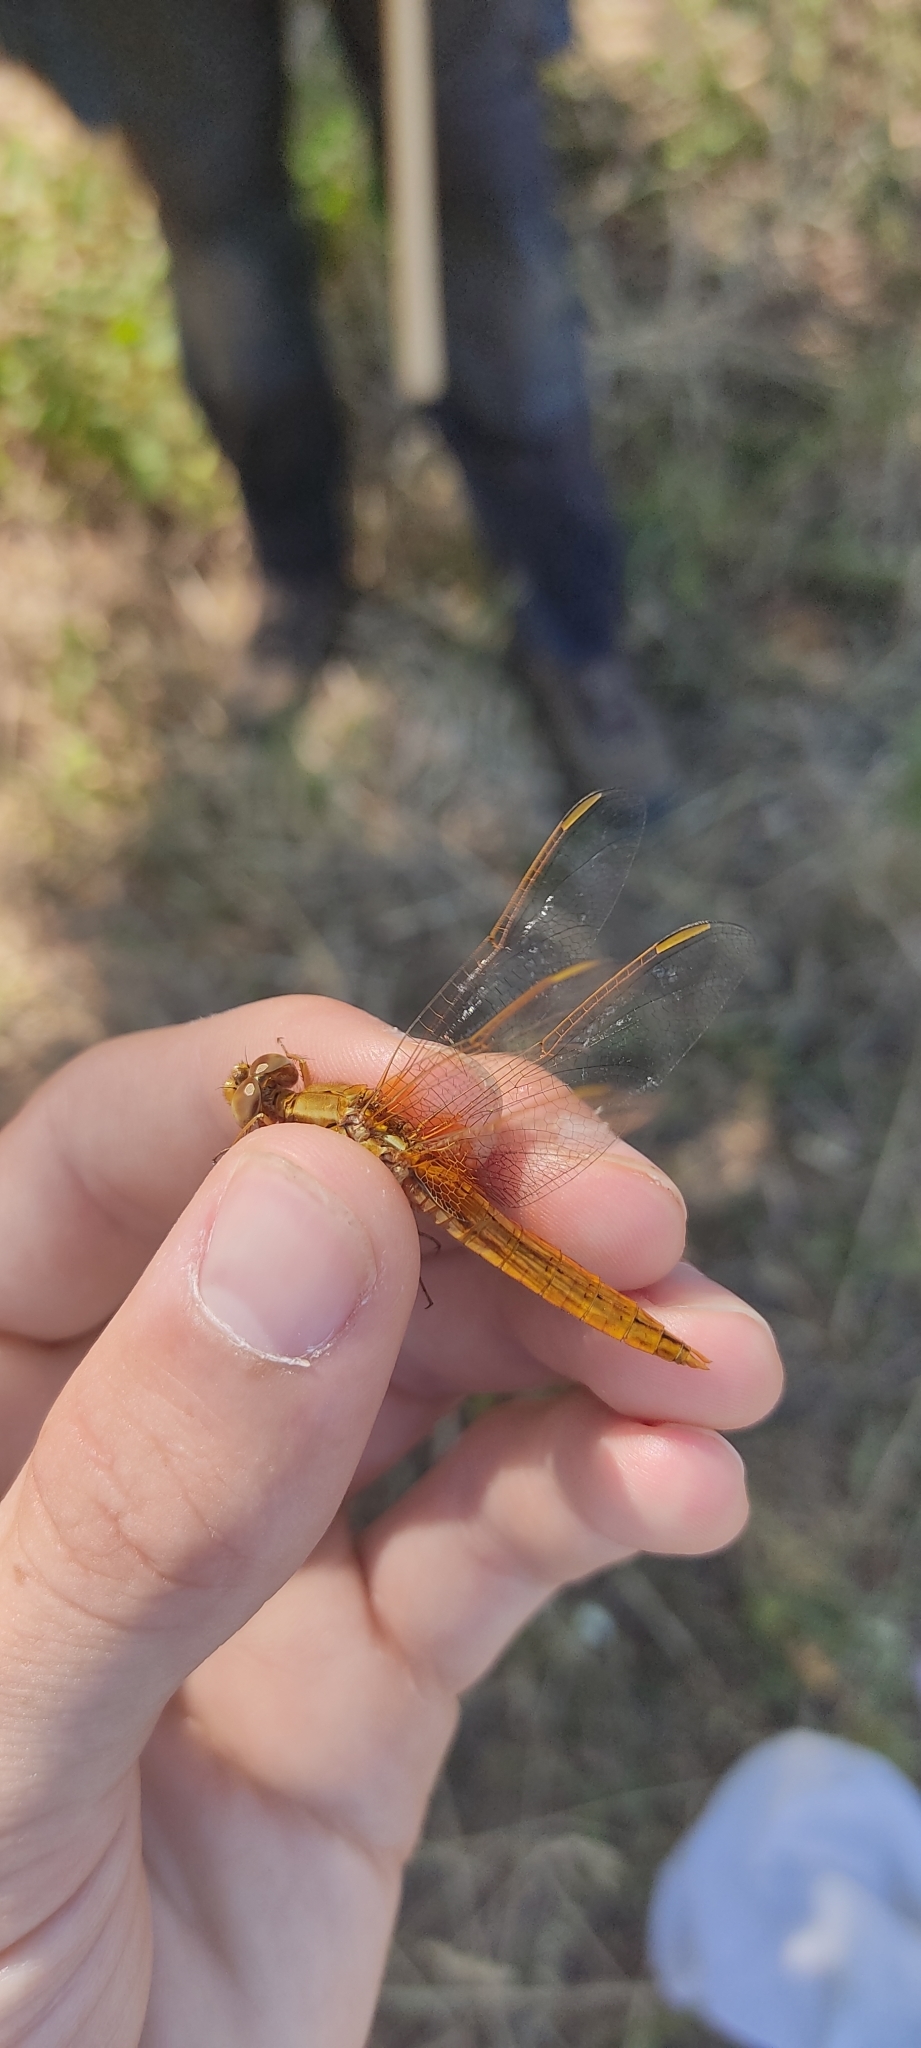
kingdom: Animalia
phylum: Arthropoda
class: Insecta
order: Odonata
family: Libellulidae
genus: Crocothemis
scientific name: Crocothemis erythraea
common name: Scarlet dragonfly
